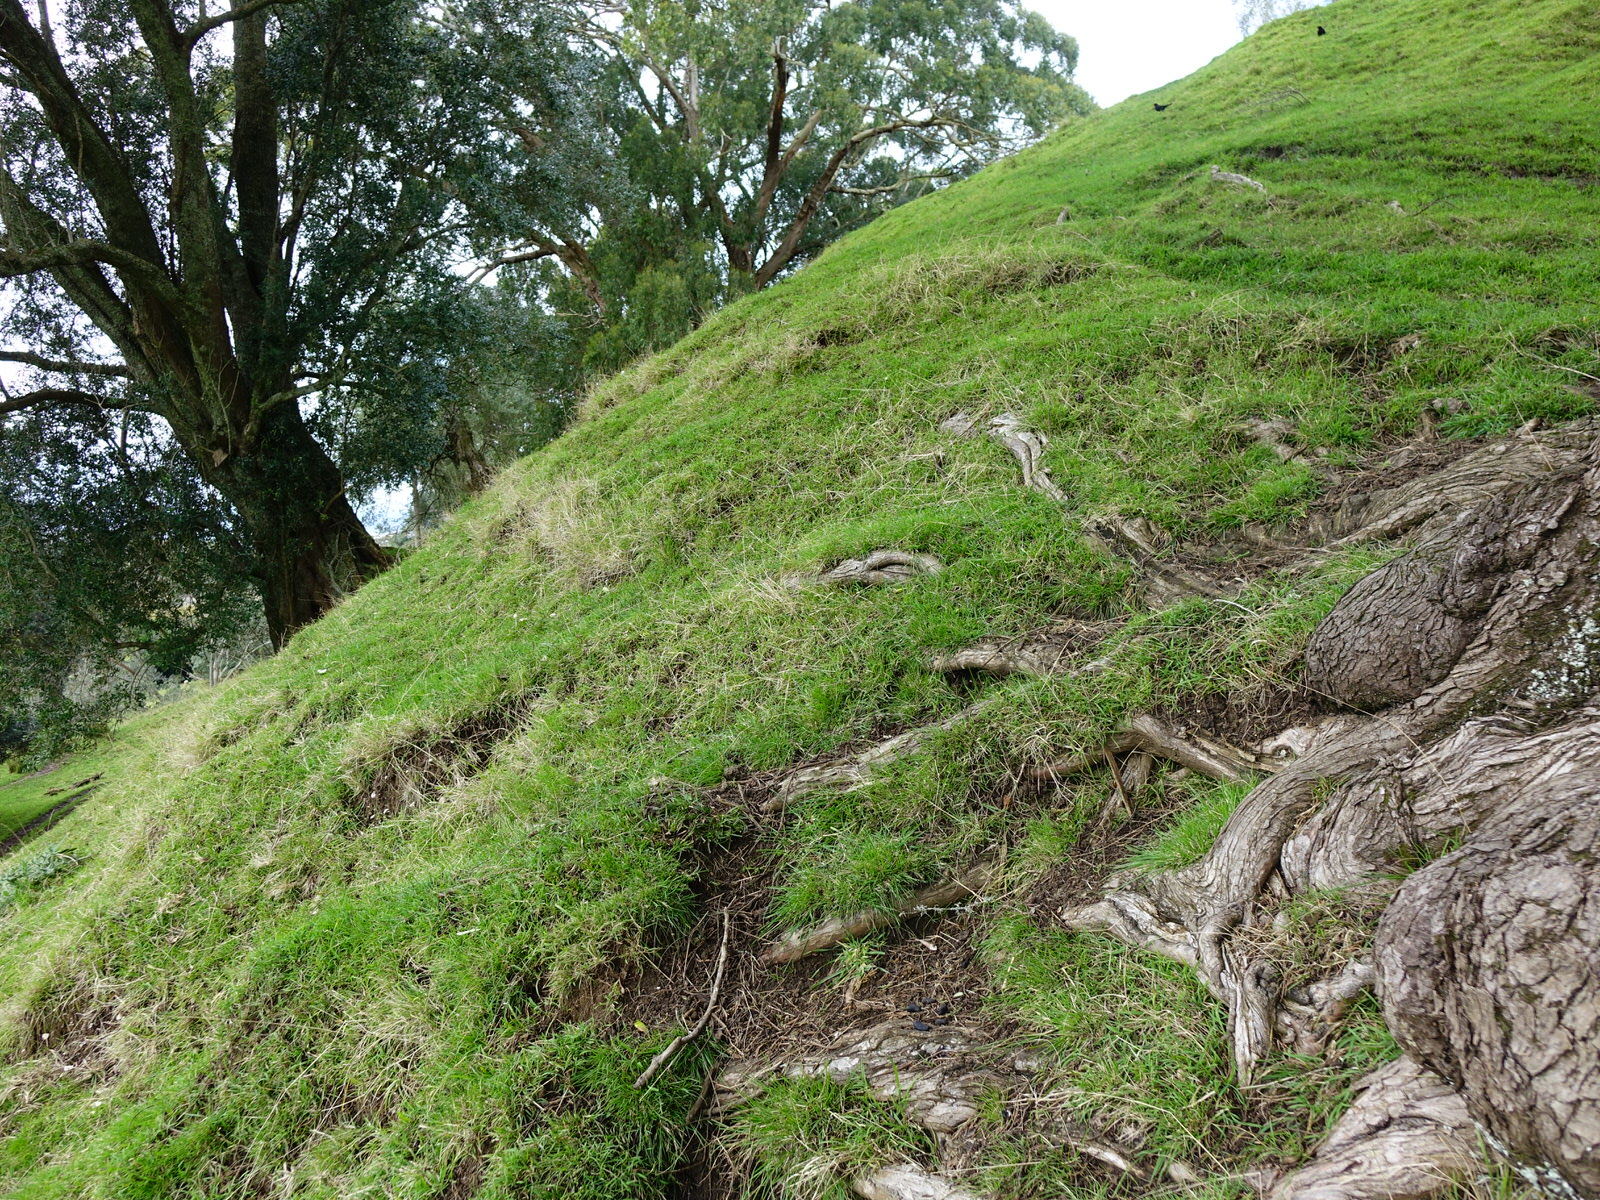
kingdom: Animalia
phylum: Chordata
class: Mammalia
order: Diprotodontia
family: Phalangeridae
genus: Trichosurus
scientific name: Trichosurus vulpecula
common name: Common brushtail
